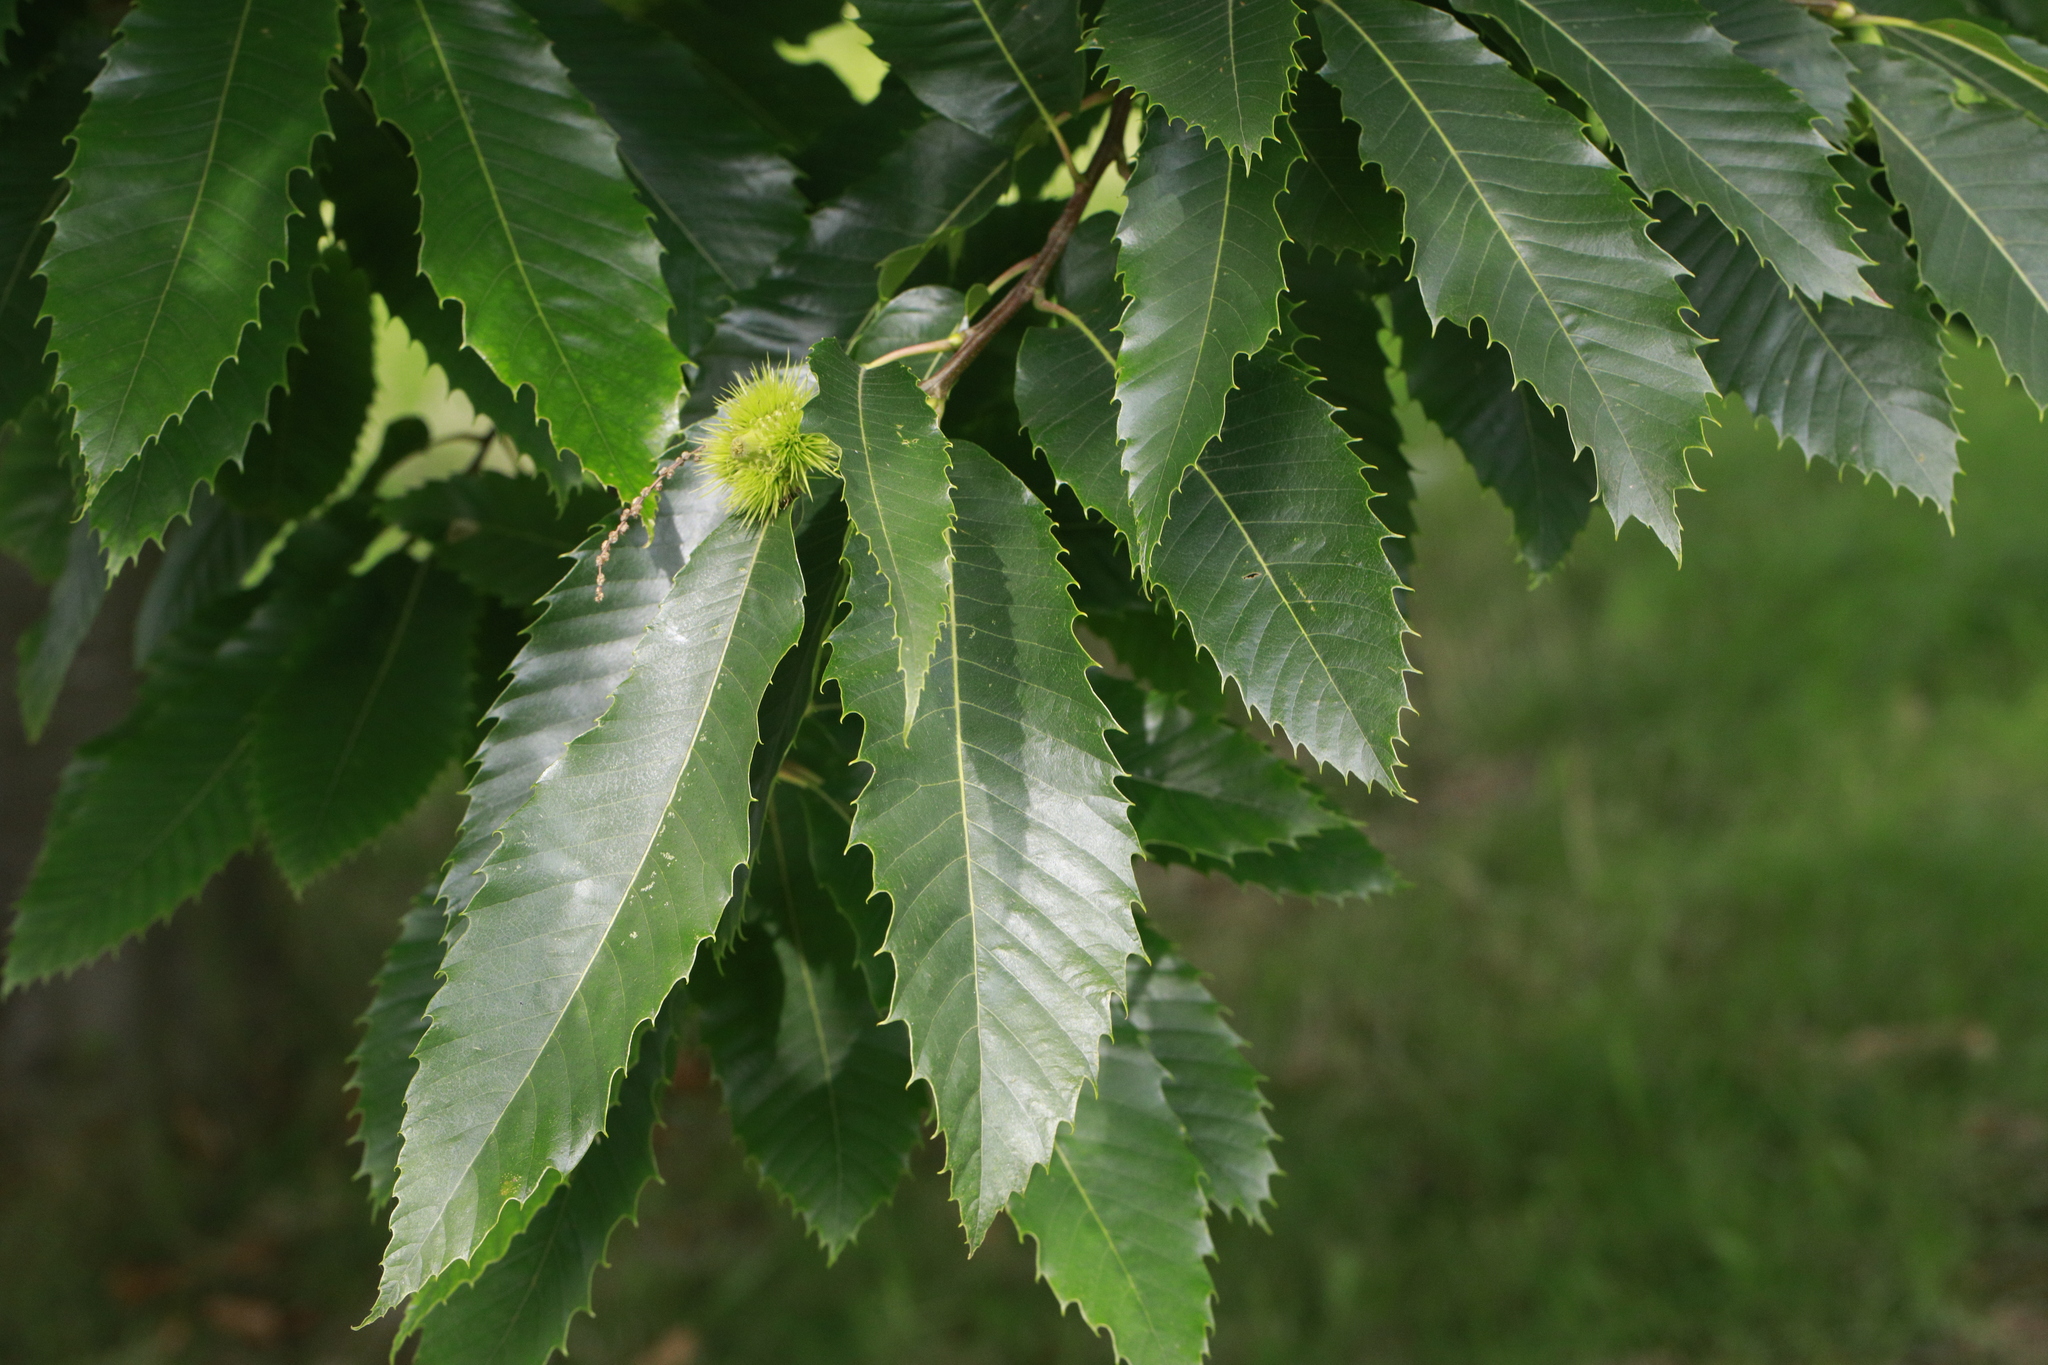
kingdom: Plantae
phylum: Tracheophyta
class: Magnoliopsida
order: Fagales
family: Fagaceae
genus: Castanea
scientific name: Castanea sativa
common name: Sweet chestnut
